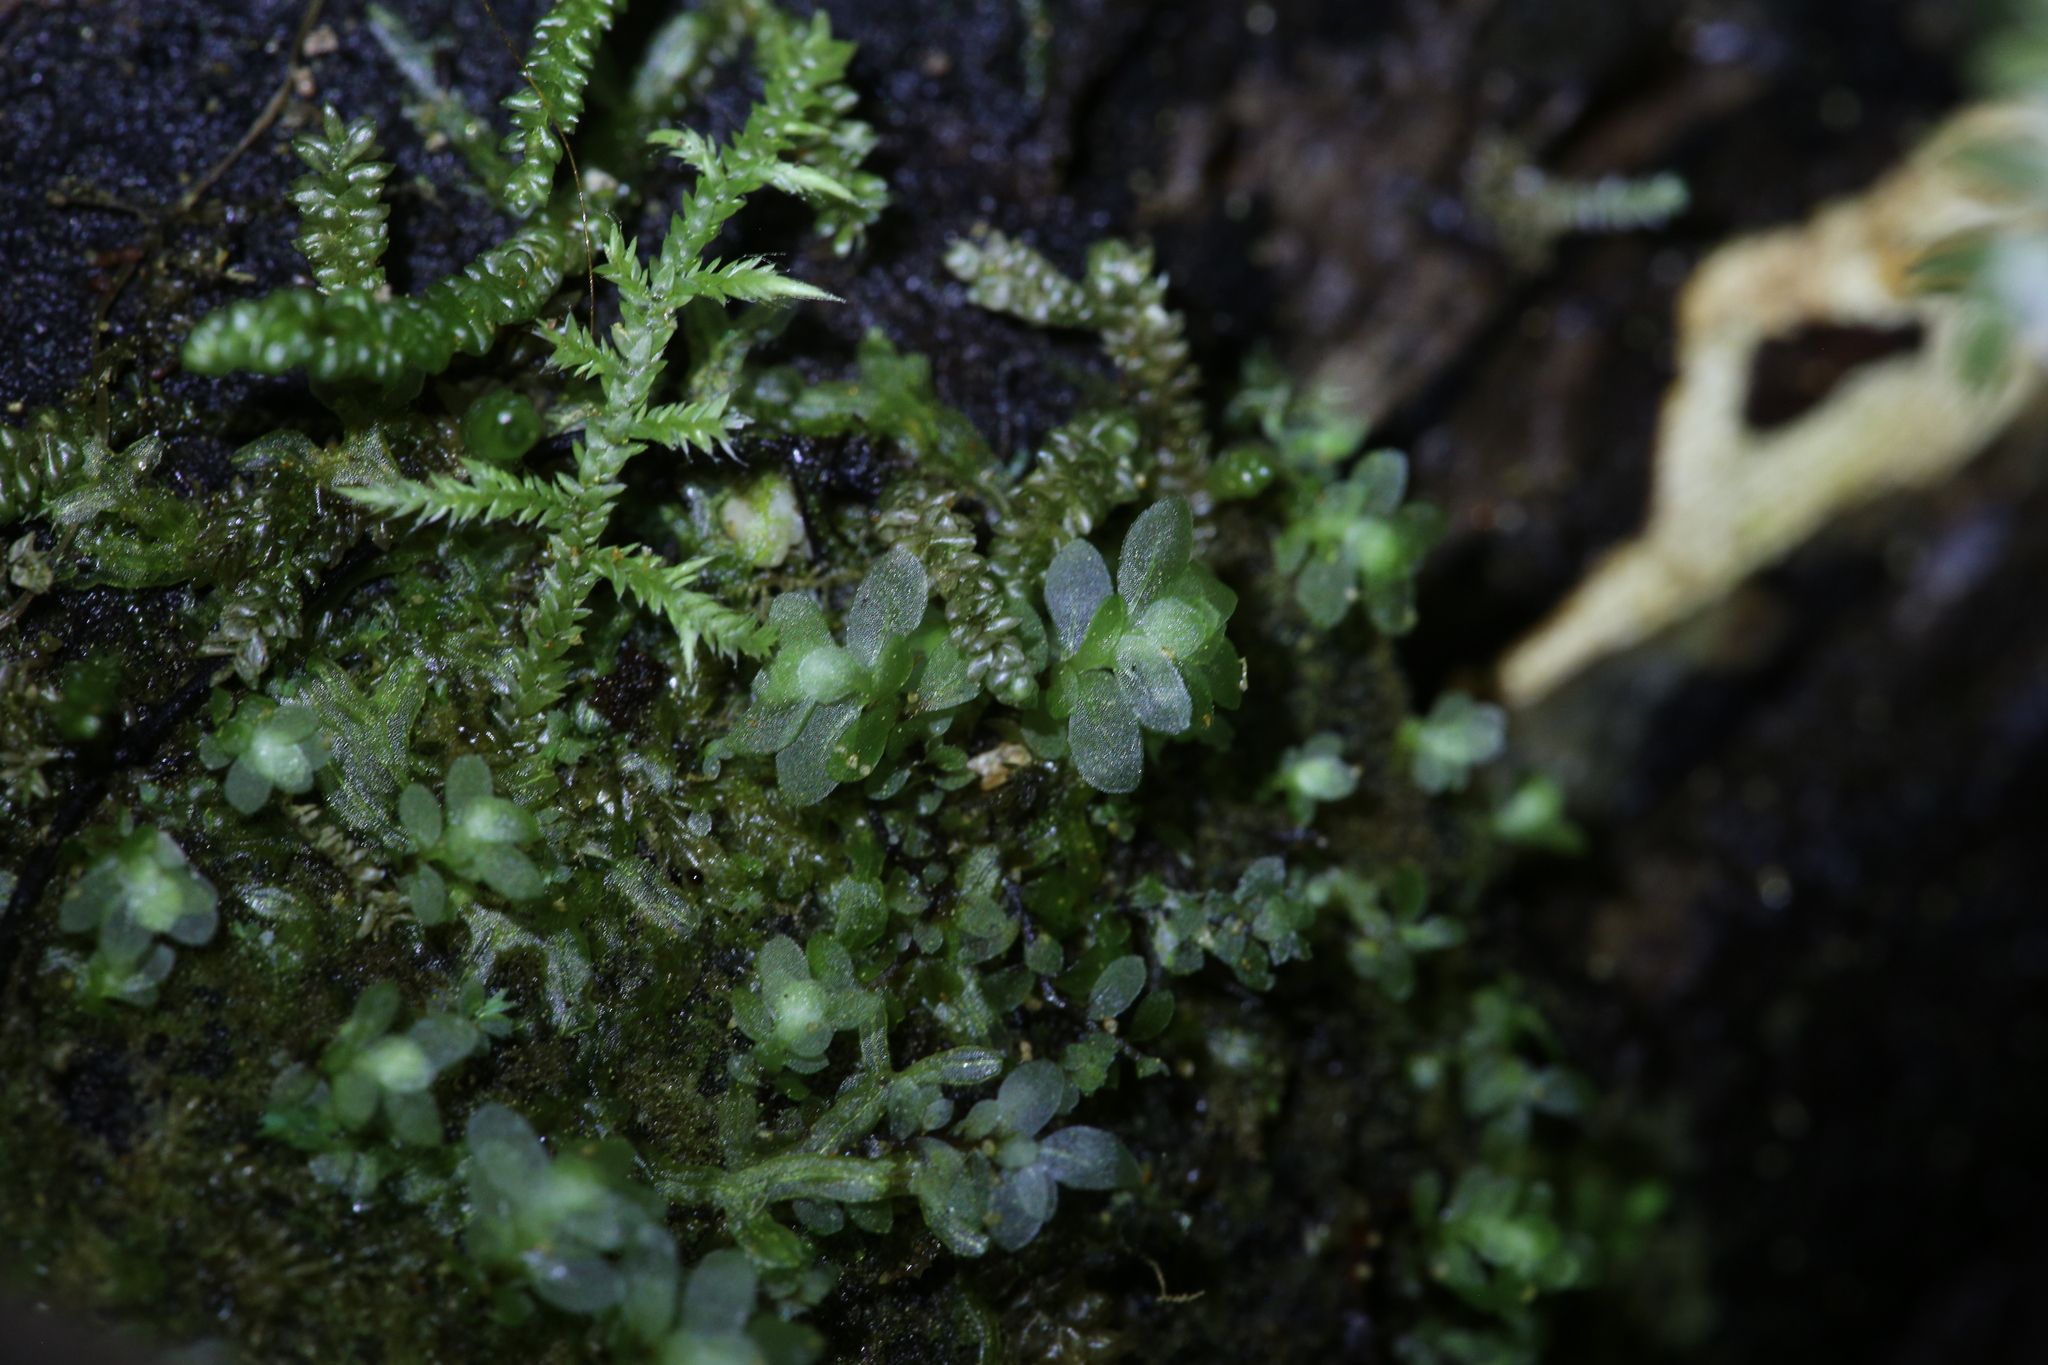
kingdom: Plantae
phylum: Bryophyta
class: Bryopsida
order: Hookeriales
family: Daltoniaceae
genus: Achrophyllum
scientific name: Achrophyllum dentatum
